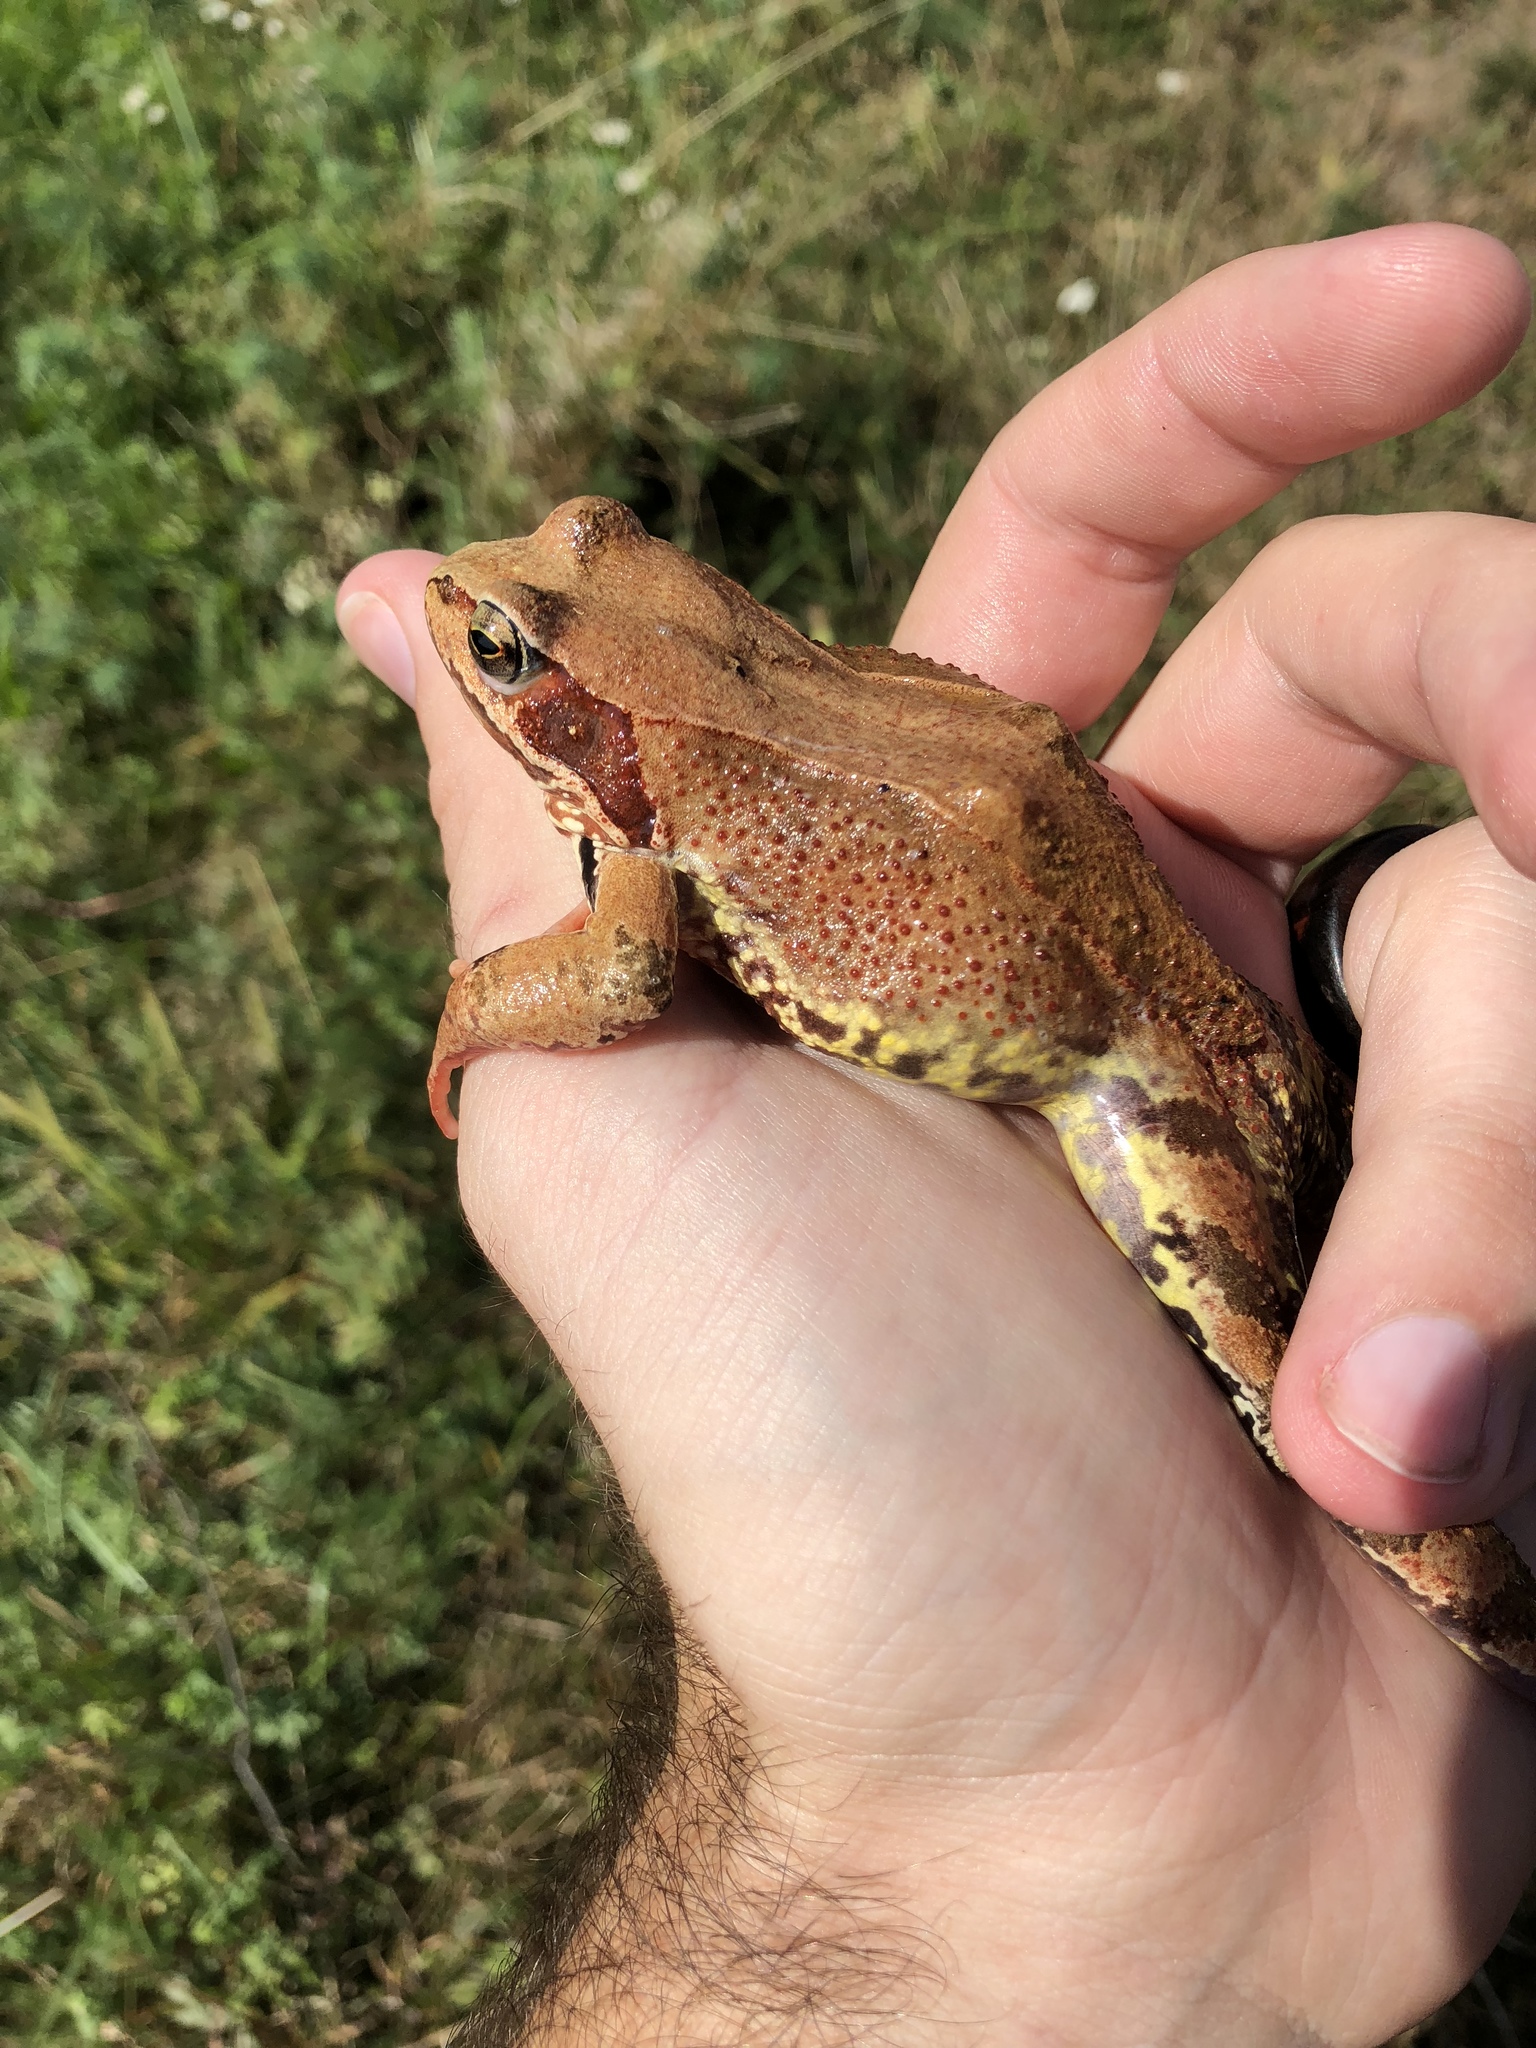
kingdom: Animalia
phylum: Chordata
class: Amphibia
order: Anura
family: Ranidae
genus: Rana
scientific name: Rana temporaria
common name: Common frog
